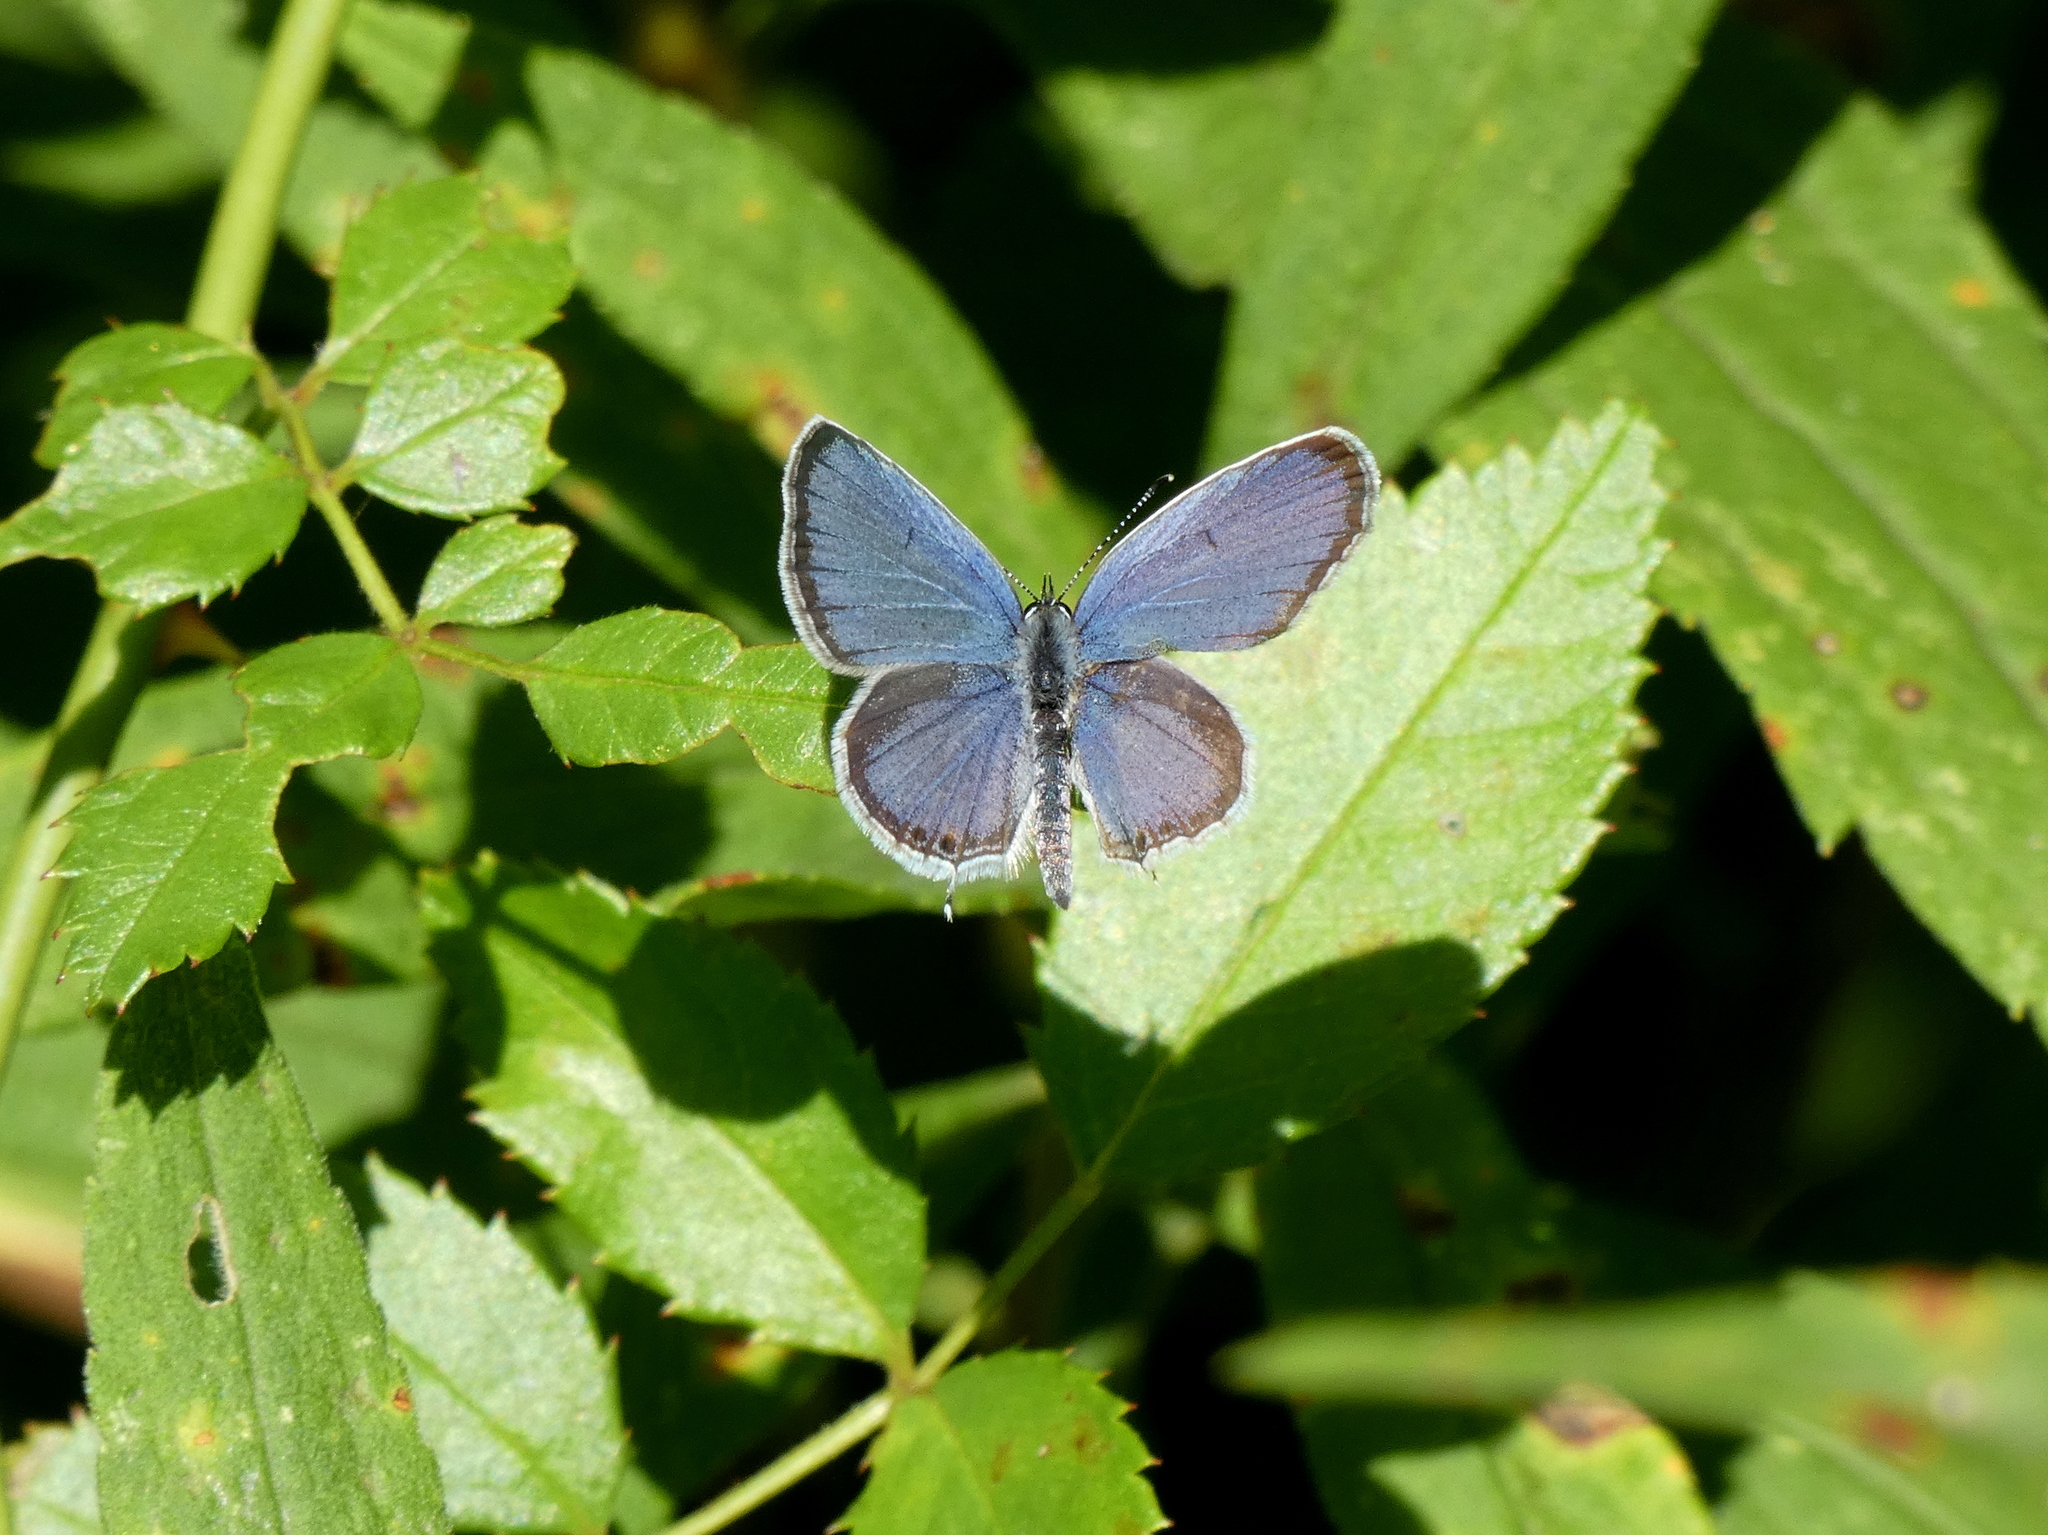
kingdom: Animalia
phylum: Arthropoda
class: Insecta
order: Lepidoptera
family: Lycaenidae
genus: Elkalyce
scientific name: Elkalyce comyntas
